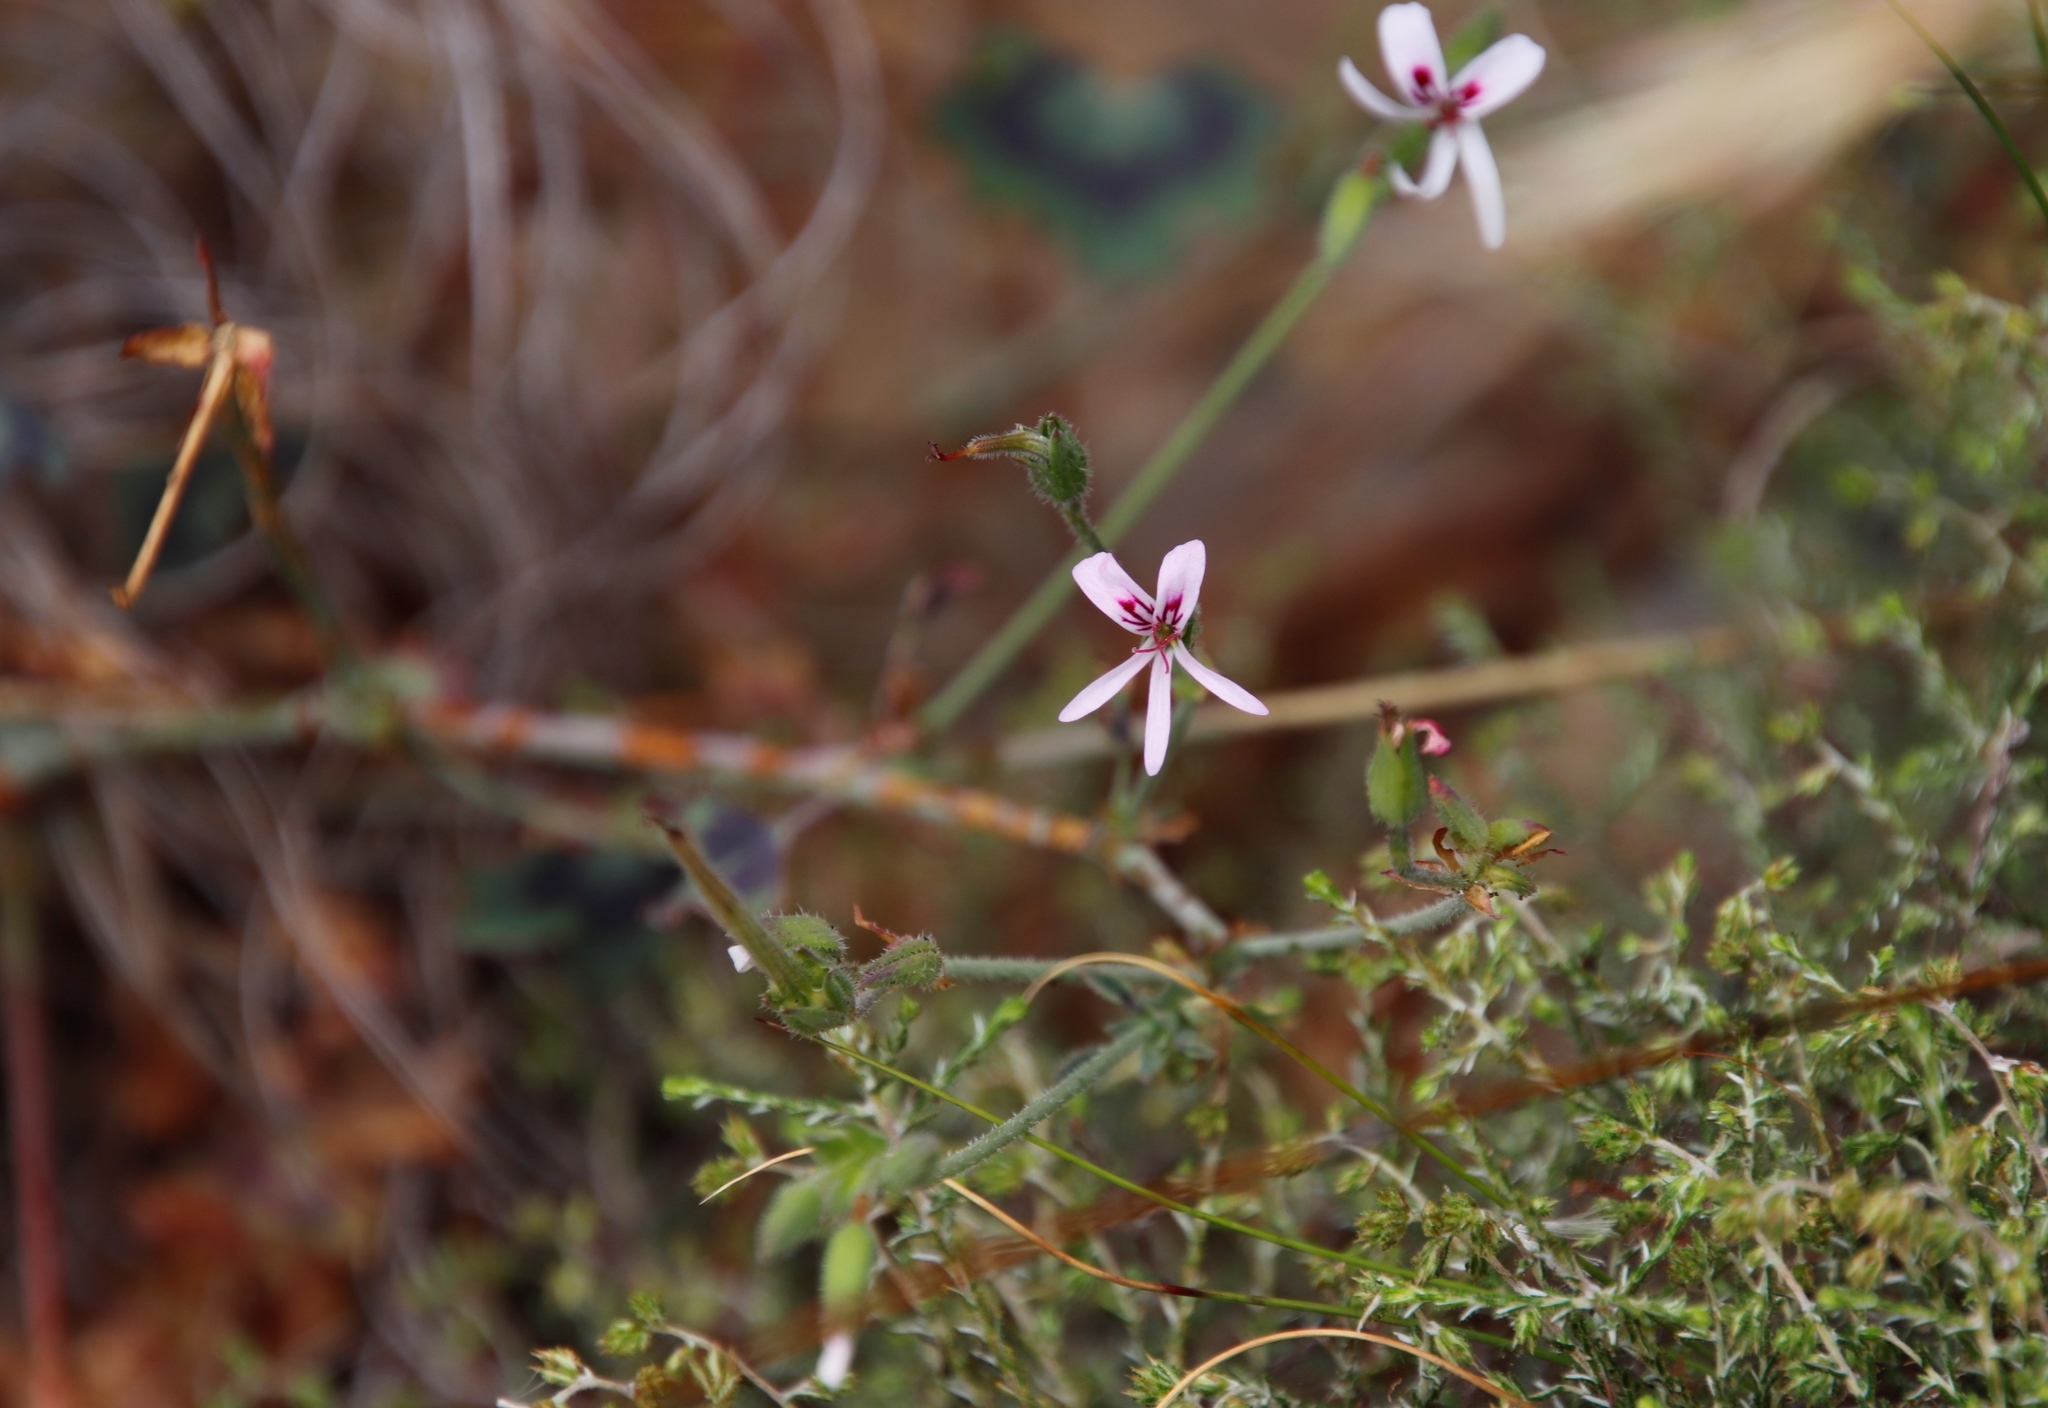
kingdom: Plantae
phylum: Tracheophyta
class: Magnoliopsida
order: Geraniales
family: Geraniaceae
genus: Pelargonium
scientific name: Pelargonium tabulare
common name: Table mountain pelargonium
